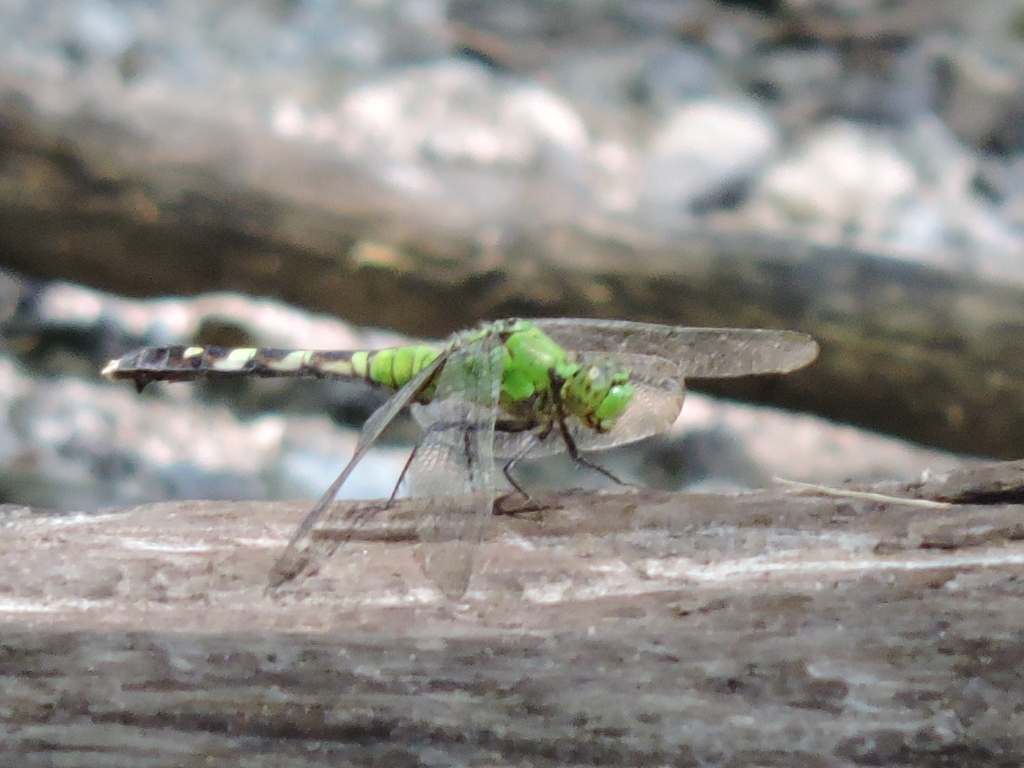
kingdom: Animalia
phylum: Arthropoda
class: Insecta
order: Odonata
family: Libellulidae
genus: Erythemis
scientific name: Erythemis simplicicollis
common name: Eastern pondhawk
